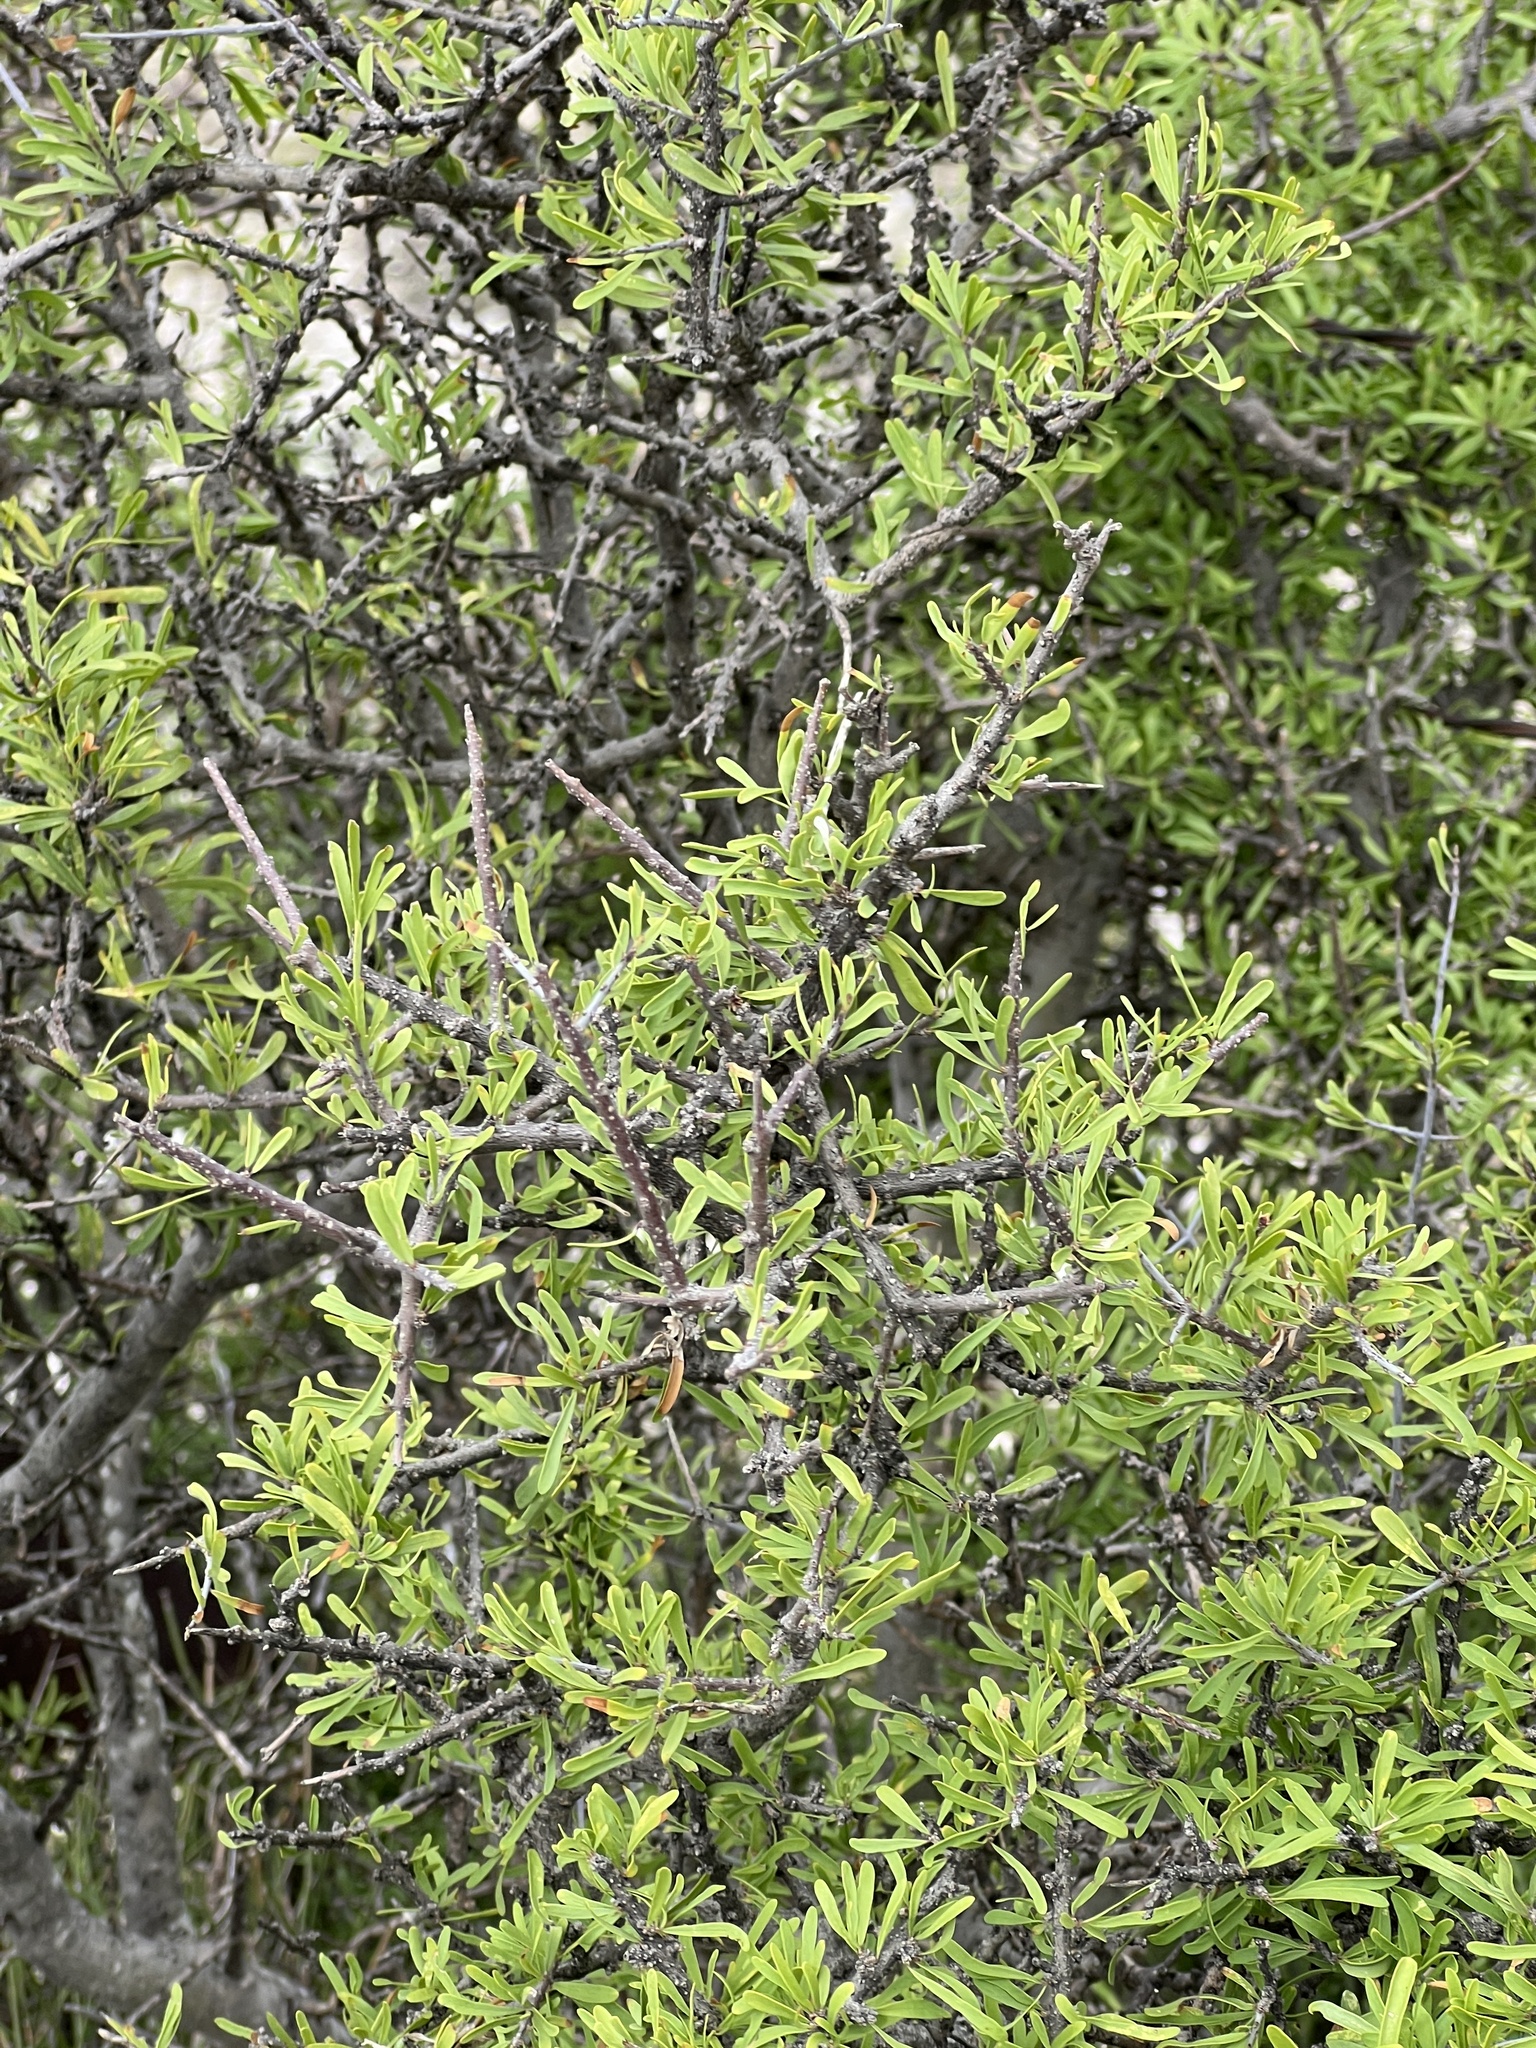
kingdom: Plantae
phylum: Tracheophyta
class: Magnoliopsida
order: Lamiales
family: Oleaceae
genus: Forestiera
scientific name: Forestiera angustifolia
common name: Elbowbush
